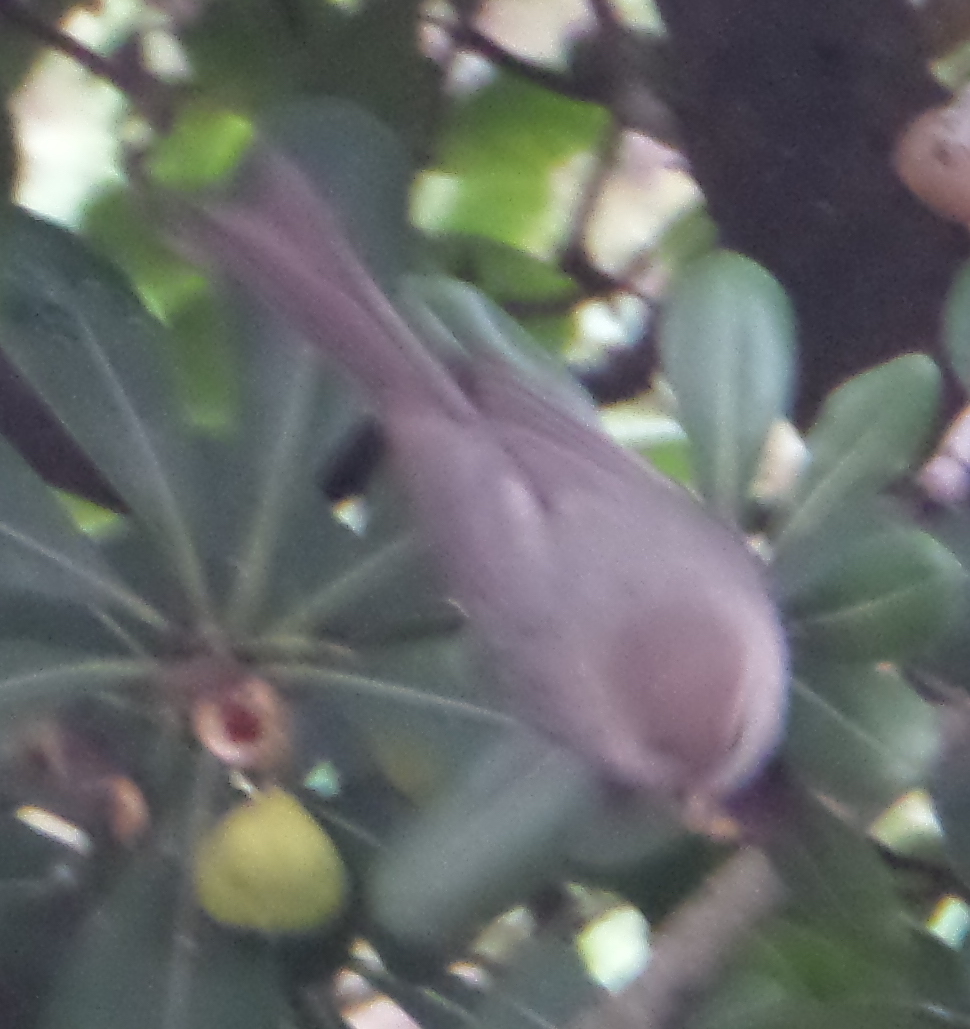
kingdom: Animalia
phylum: Chordata
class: Aves
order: Passeriformes
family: Aegithalidae
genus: Psaltriparus
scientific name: Psaltriparus minimus
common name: American bushtit
